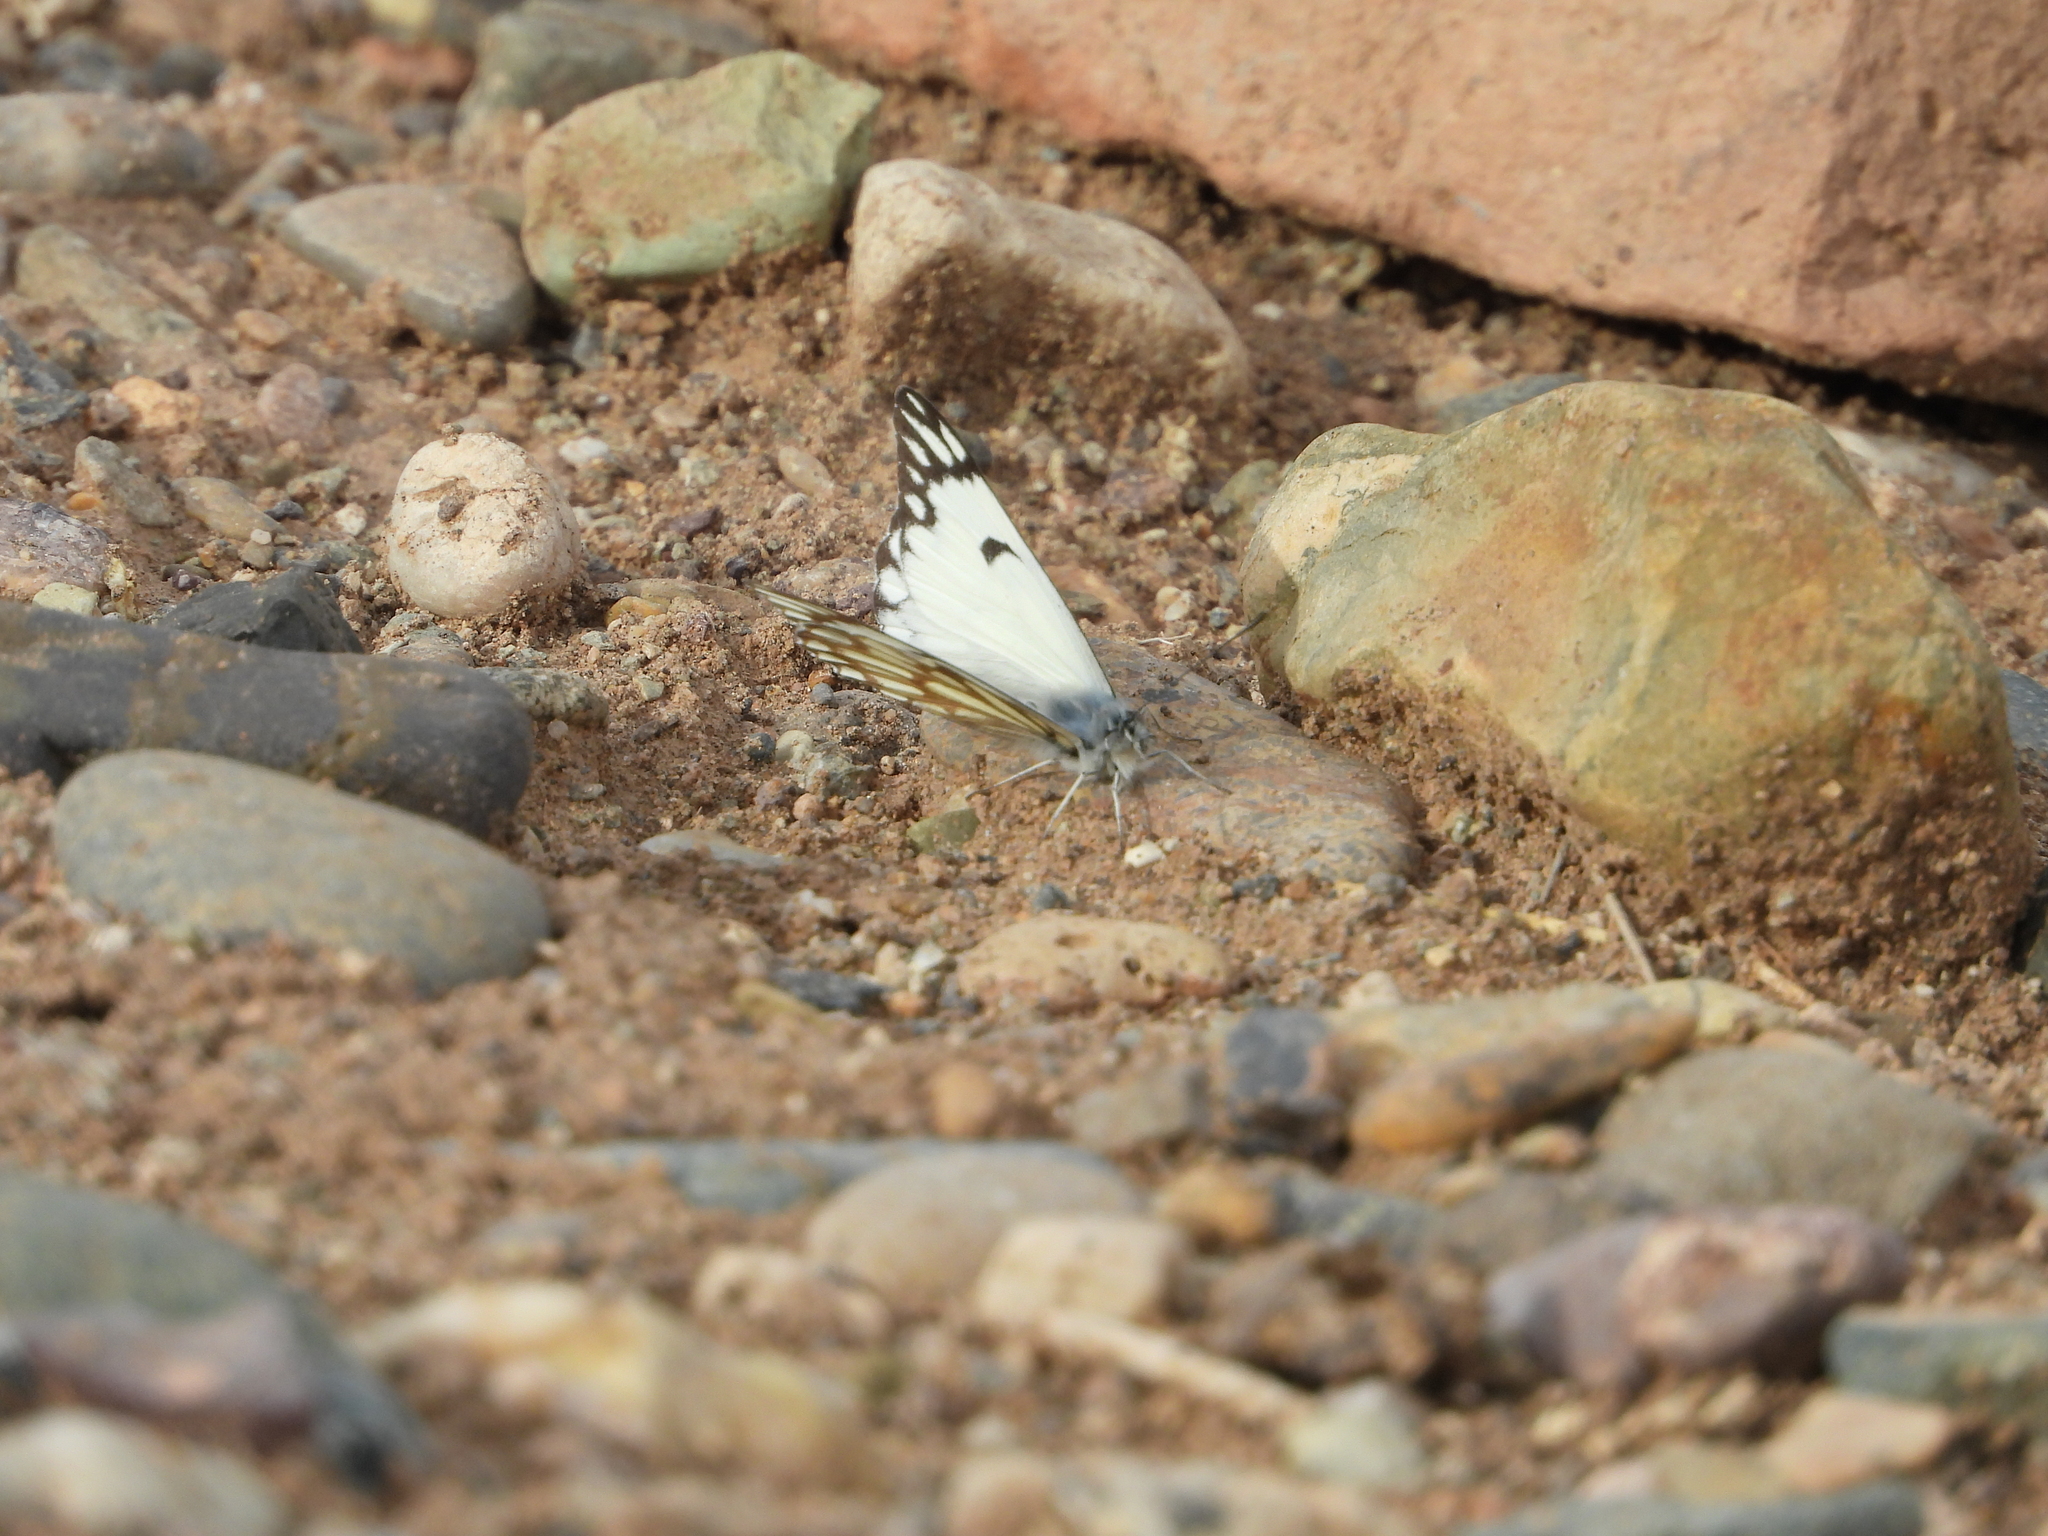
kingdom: Animalia
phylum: Arthropoda
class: Insecta
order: Lepidoptera
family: Pieridae
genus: Belenois
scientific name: Belenois aurota
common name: Brown-veined white
